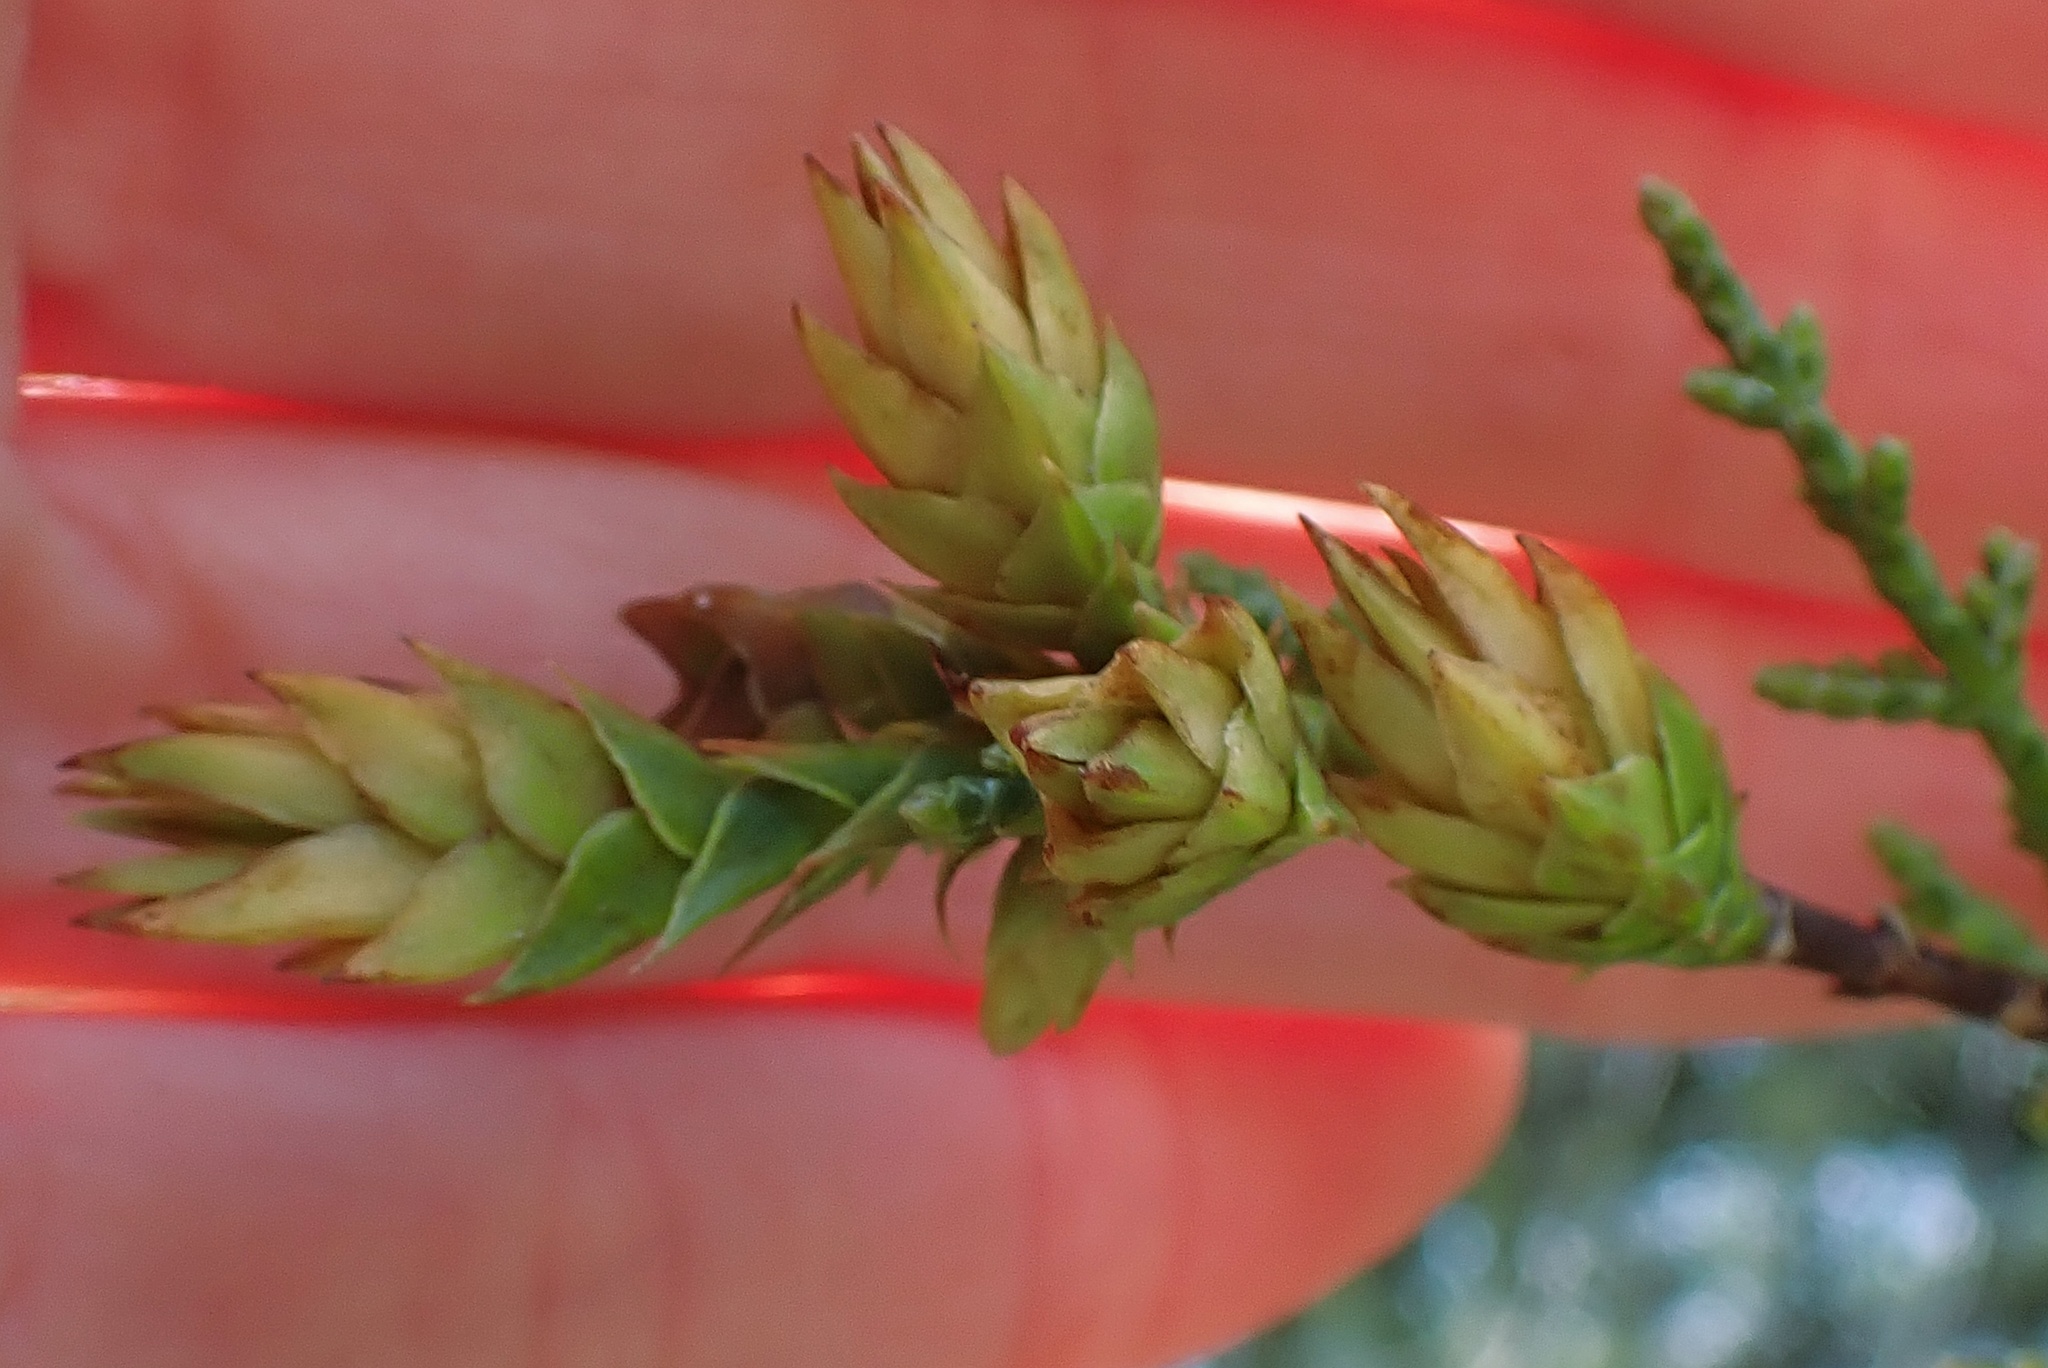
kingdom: Animalia
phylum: Arthropoda
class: Insecta
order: Diptera
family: Cecidomyiidae
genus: Oligotrophus
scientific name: Oligotrophus cupressi
